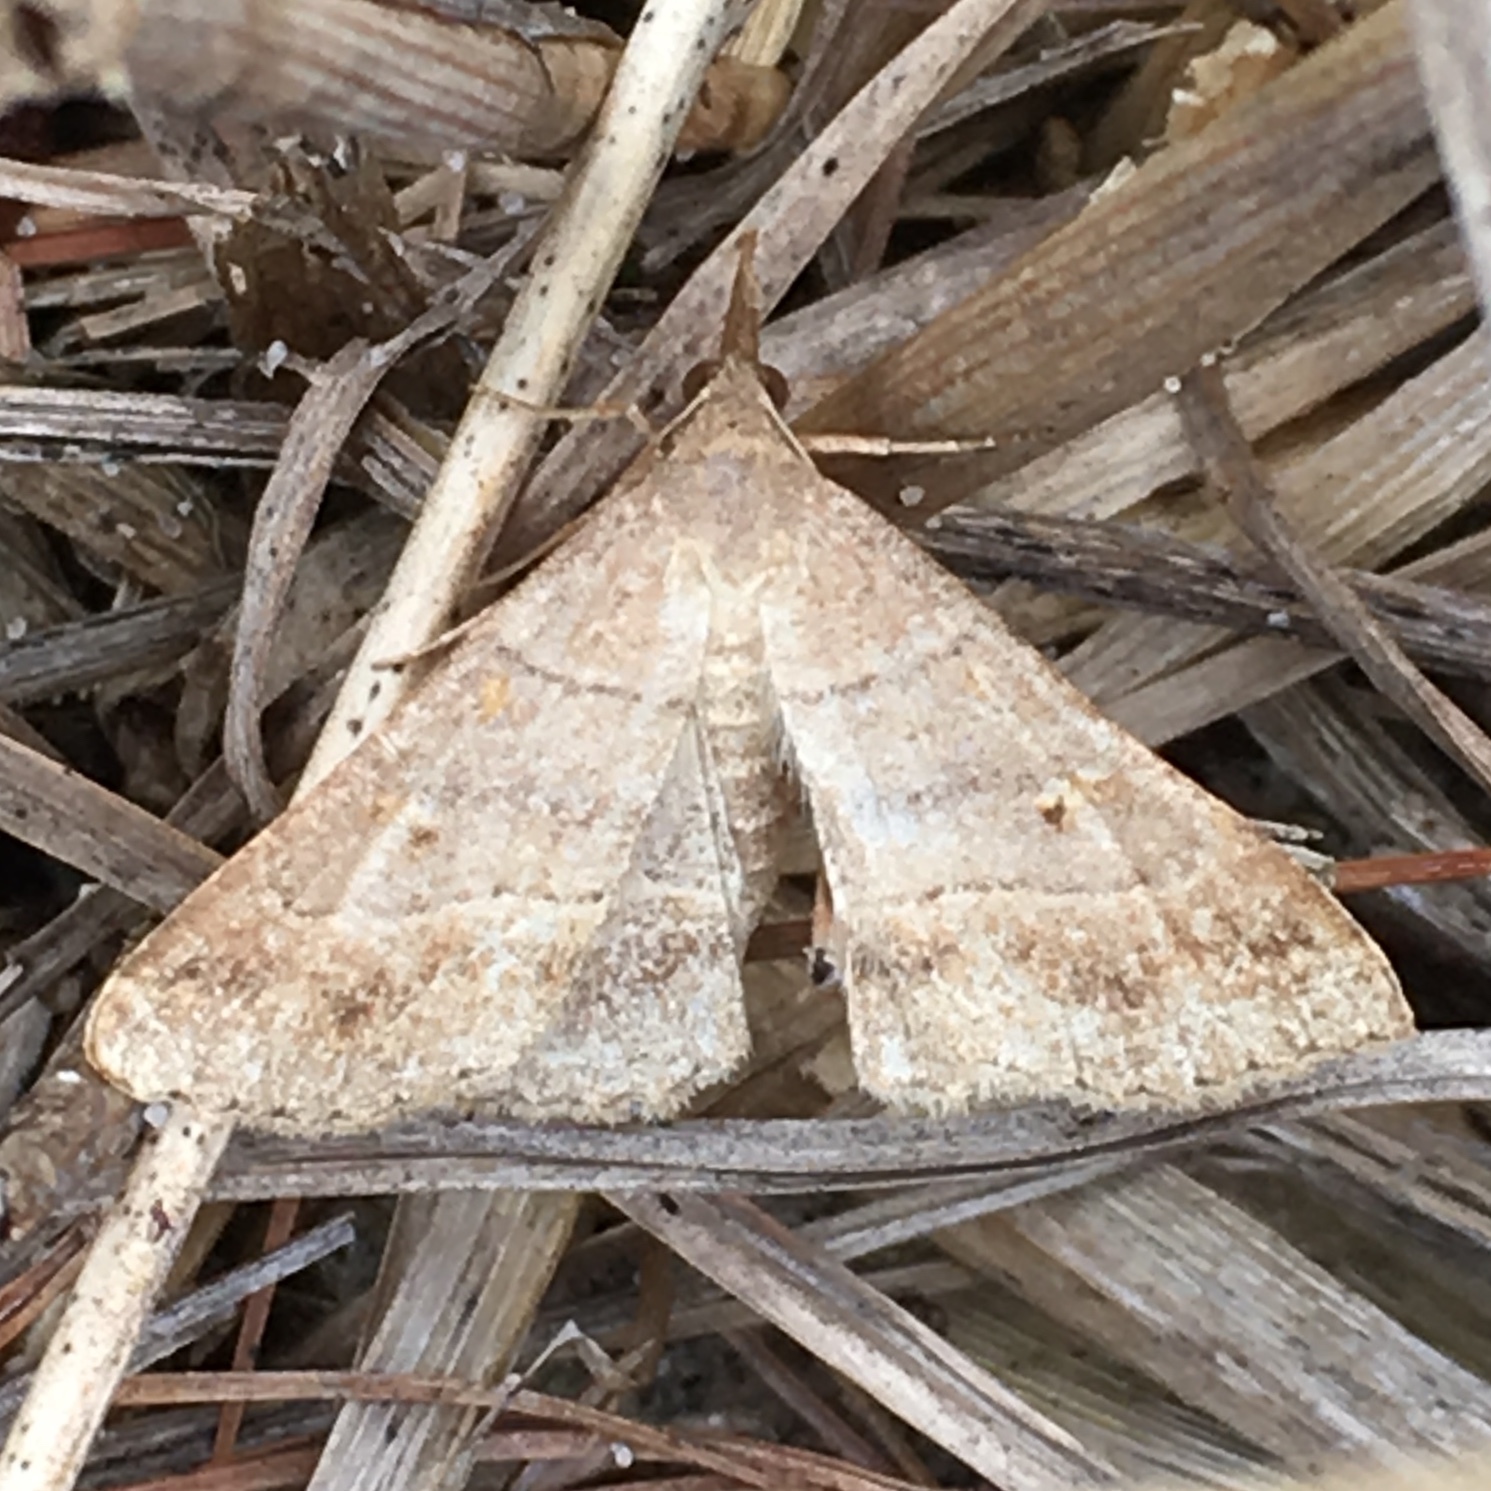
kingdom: Animalia
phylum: Arthropoda
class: Insecta
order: Lepidoptera
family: Erebidae
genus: Hypena
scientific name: Hypena deceptalis
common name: Deceptive snout
